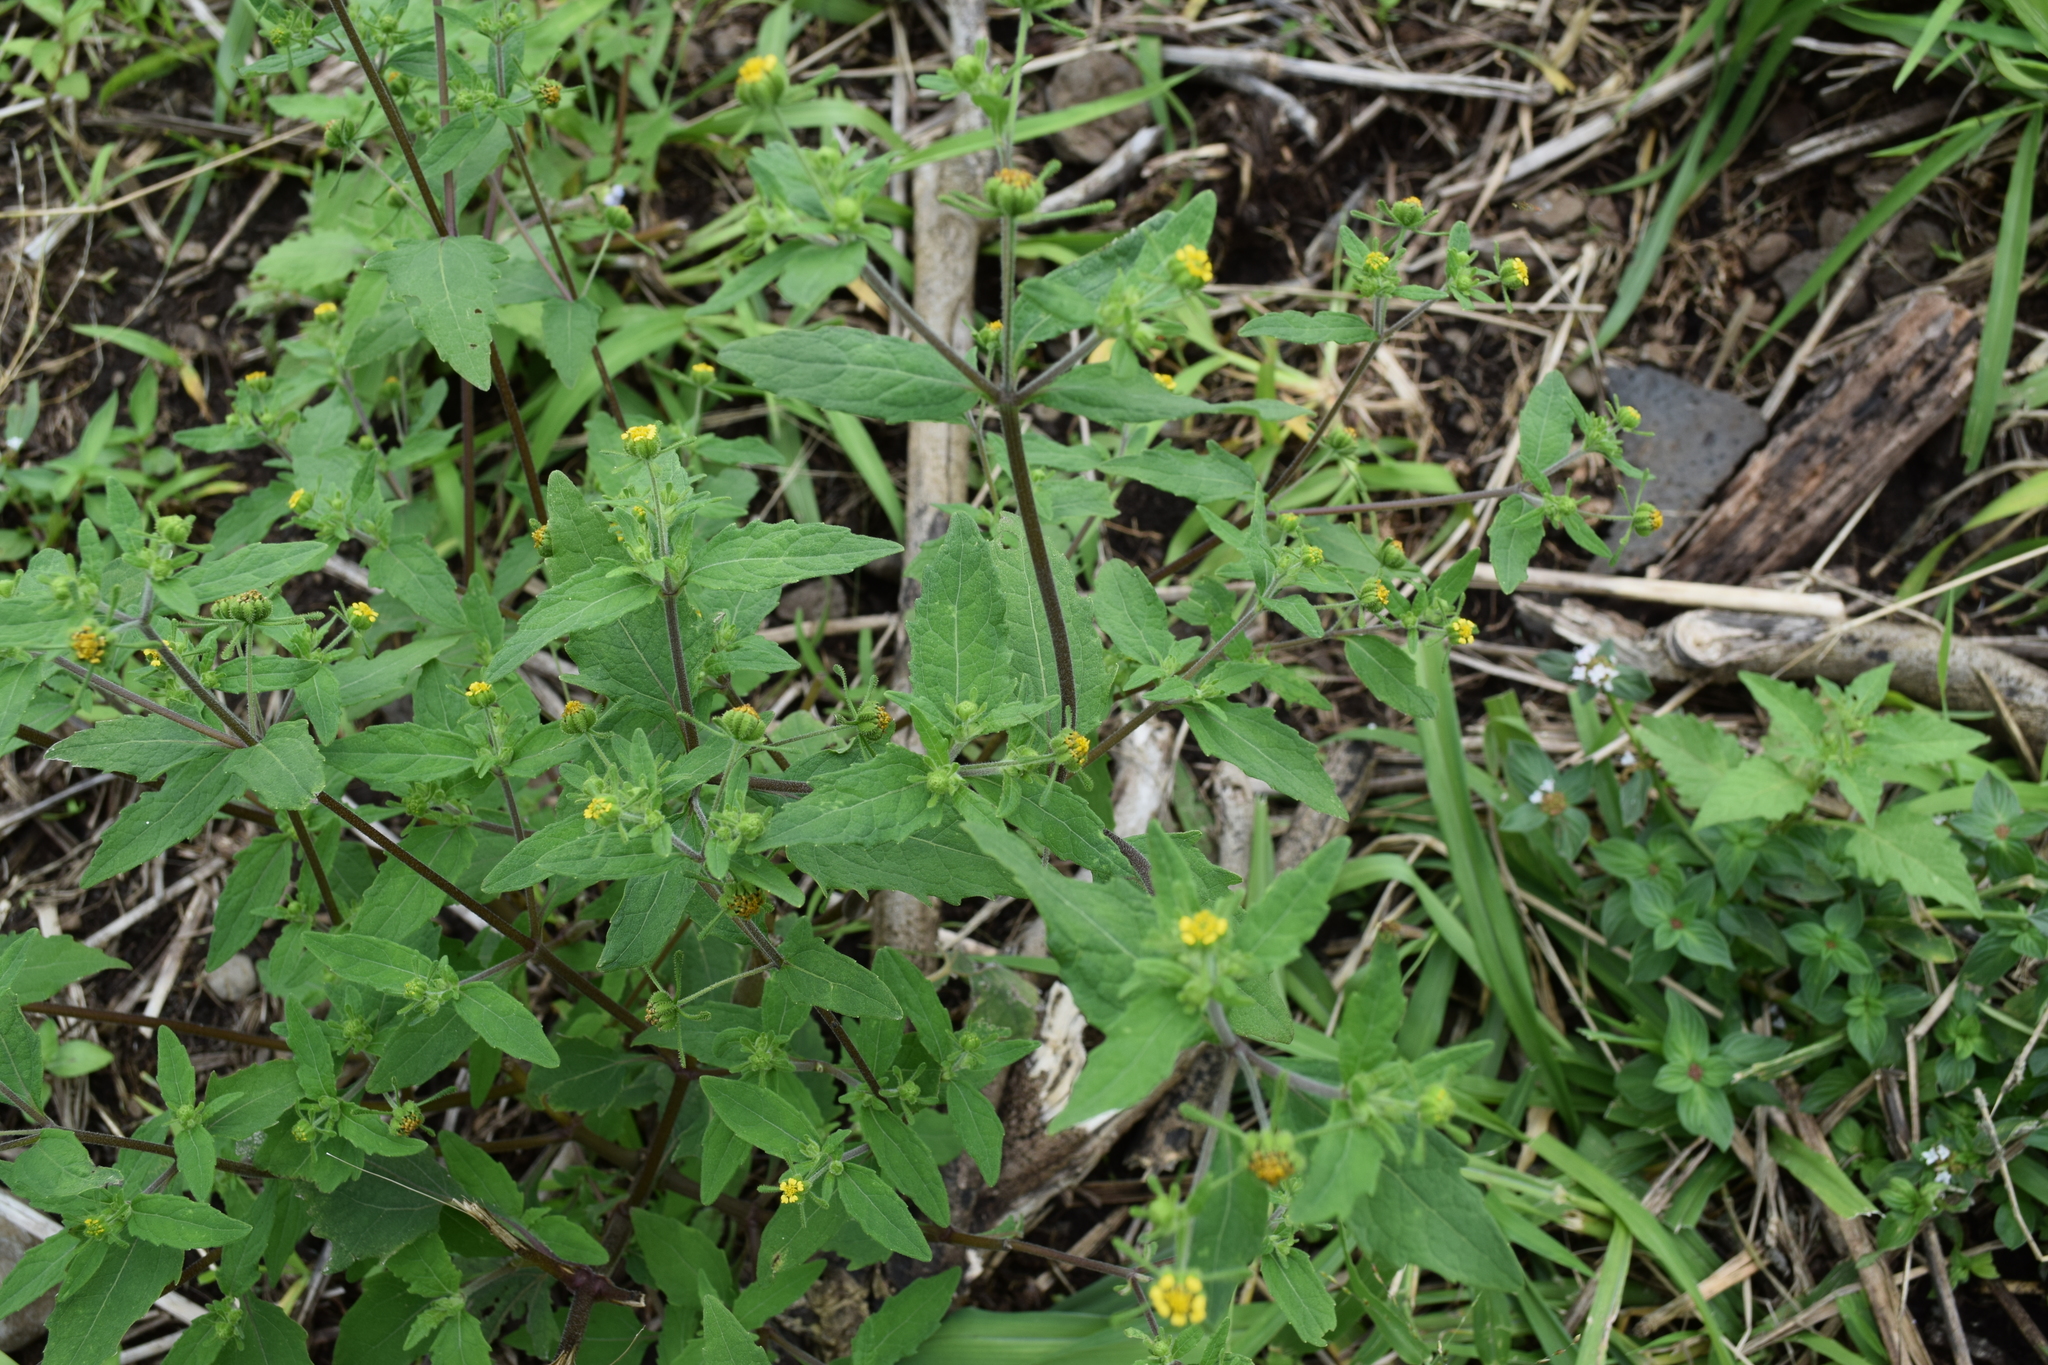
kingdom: Plantae
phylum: Tracheophyta
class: Magnoliopsida
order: Asterales
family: Asteraceae
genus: Sigesbeckia
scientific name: Sigesbeckia orientalis
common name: Eastern st paul's-wort
